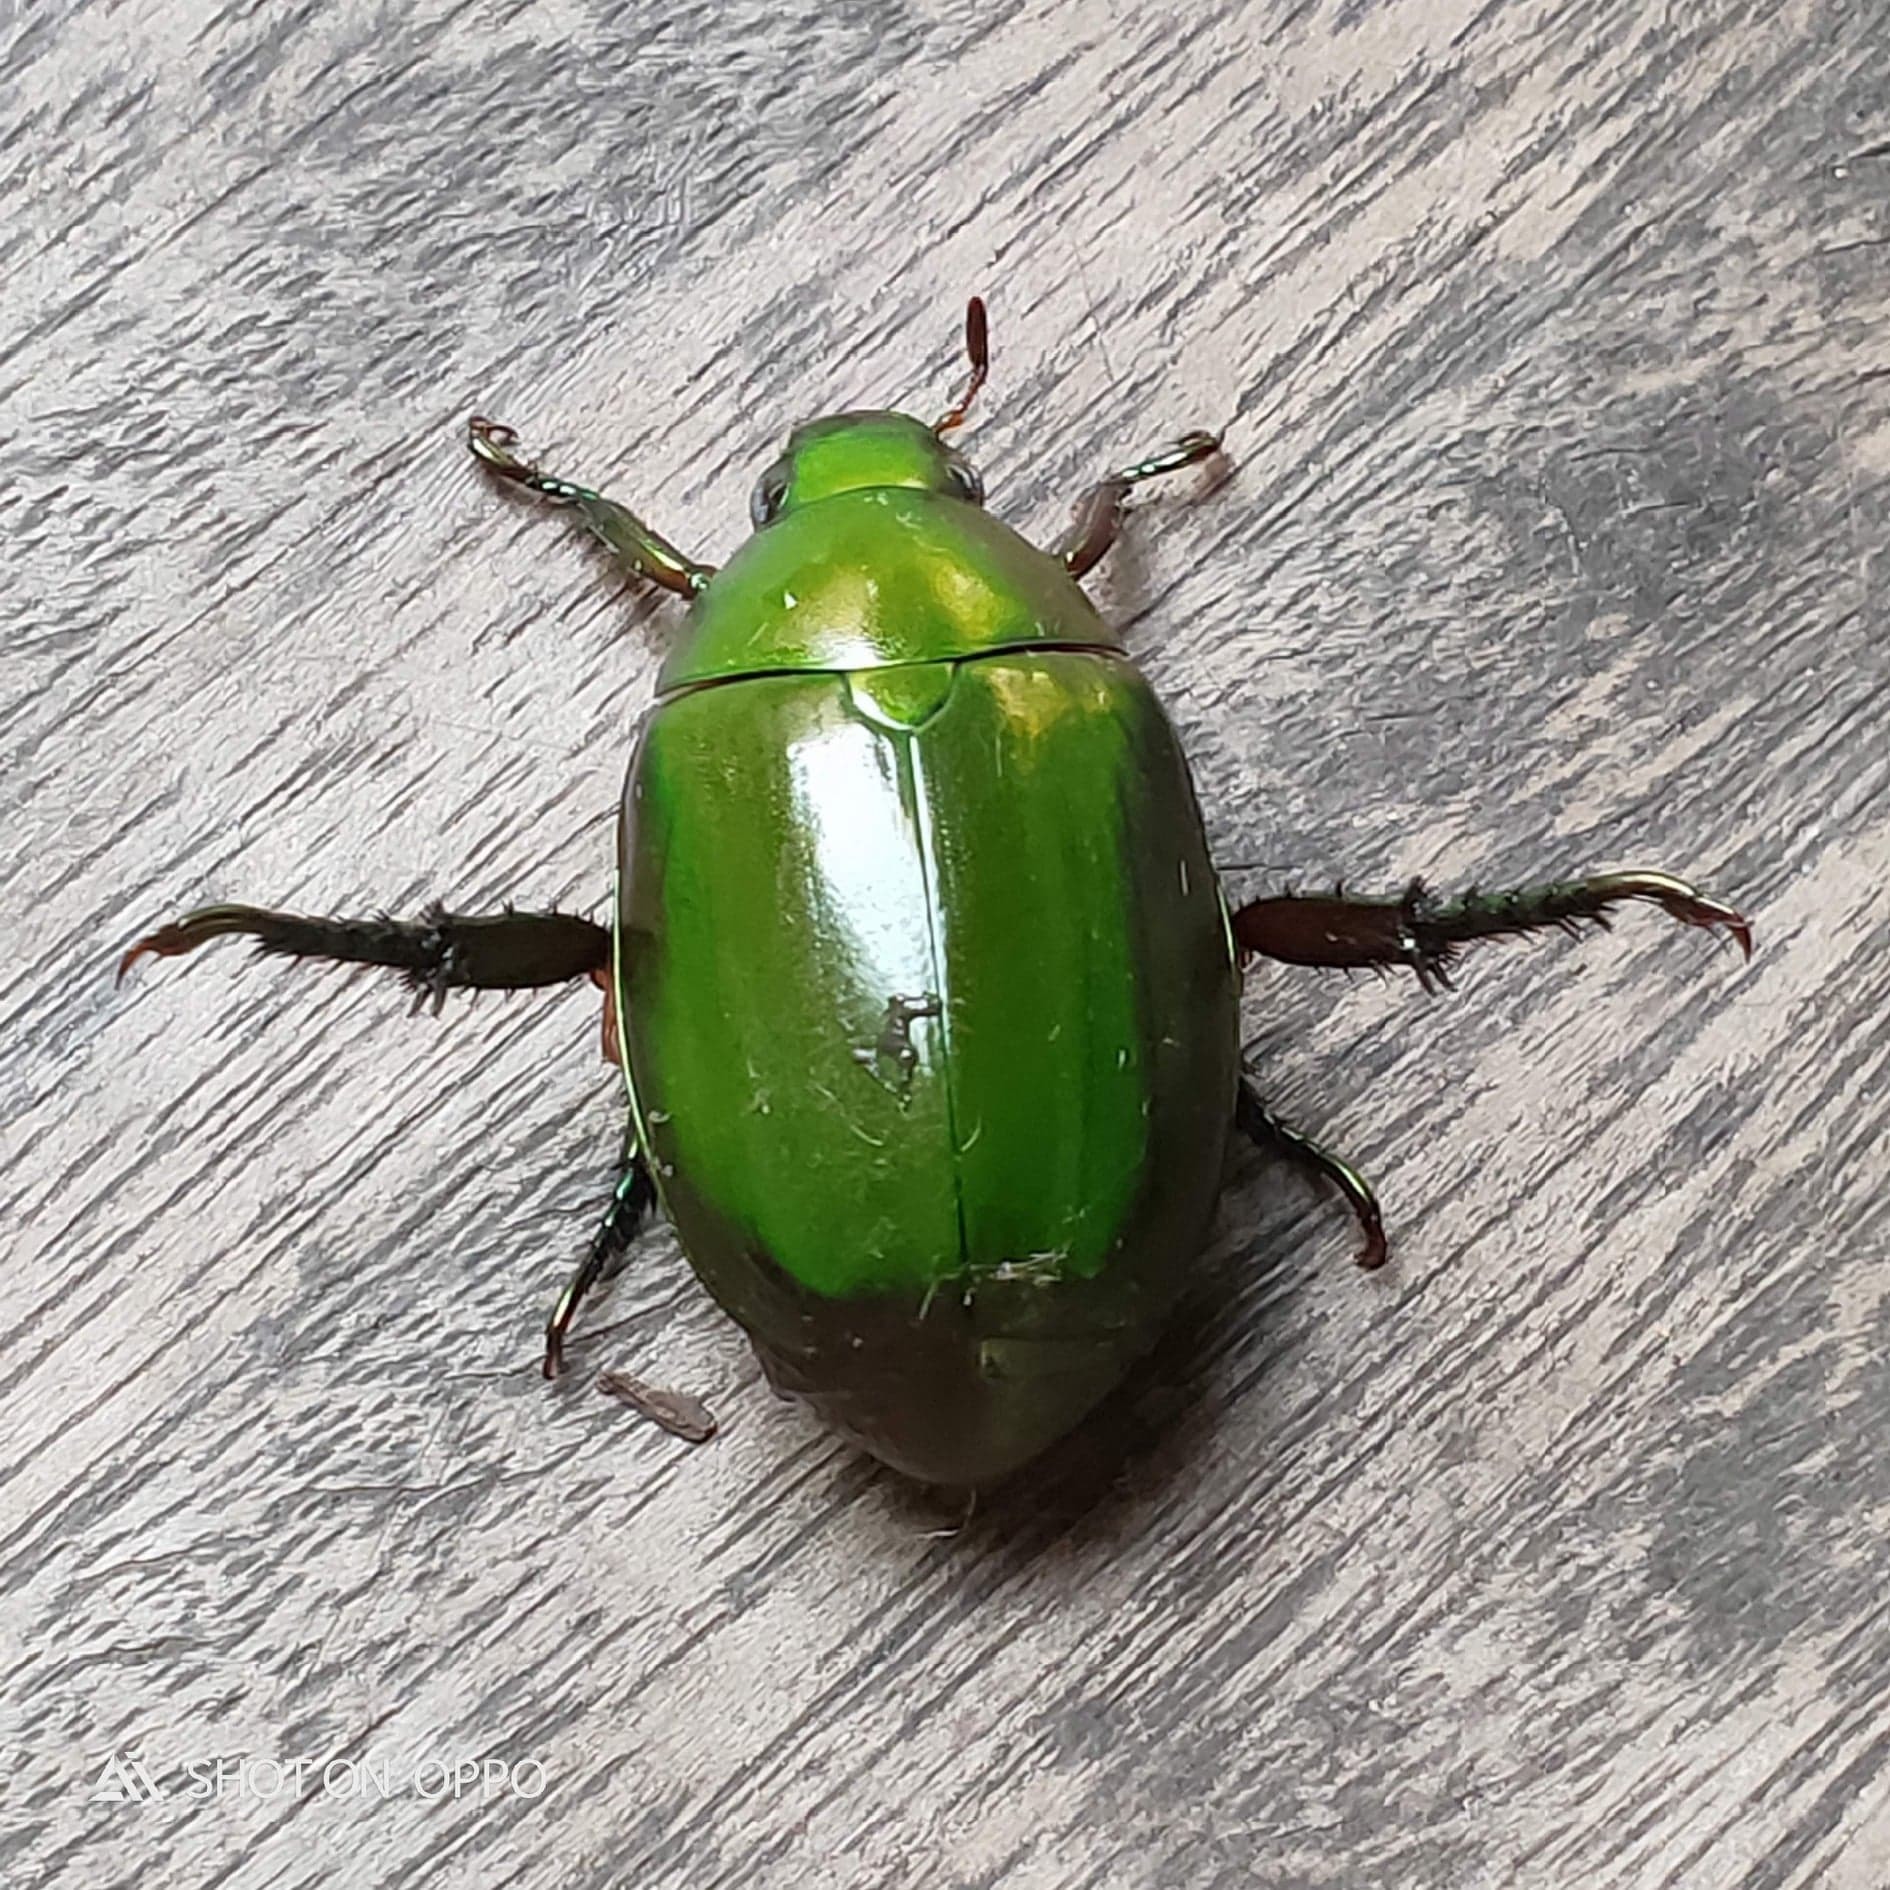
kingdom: Animalia
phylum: Arthropoda
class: Insecta
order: Coleoptera
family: Scarabaeidae
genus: Anomala
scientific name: Anomala grandis
